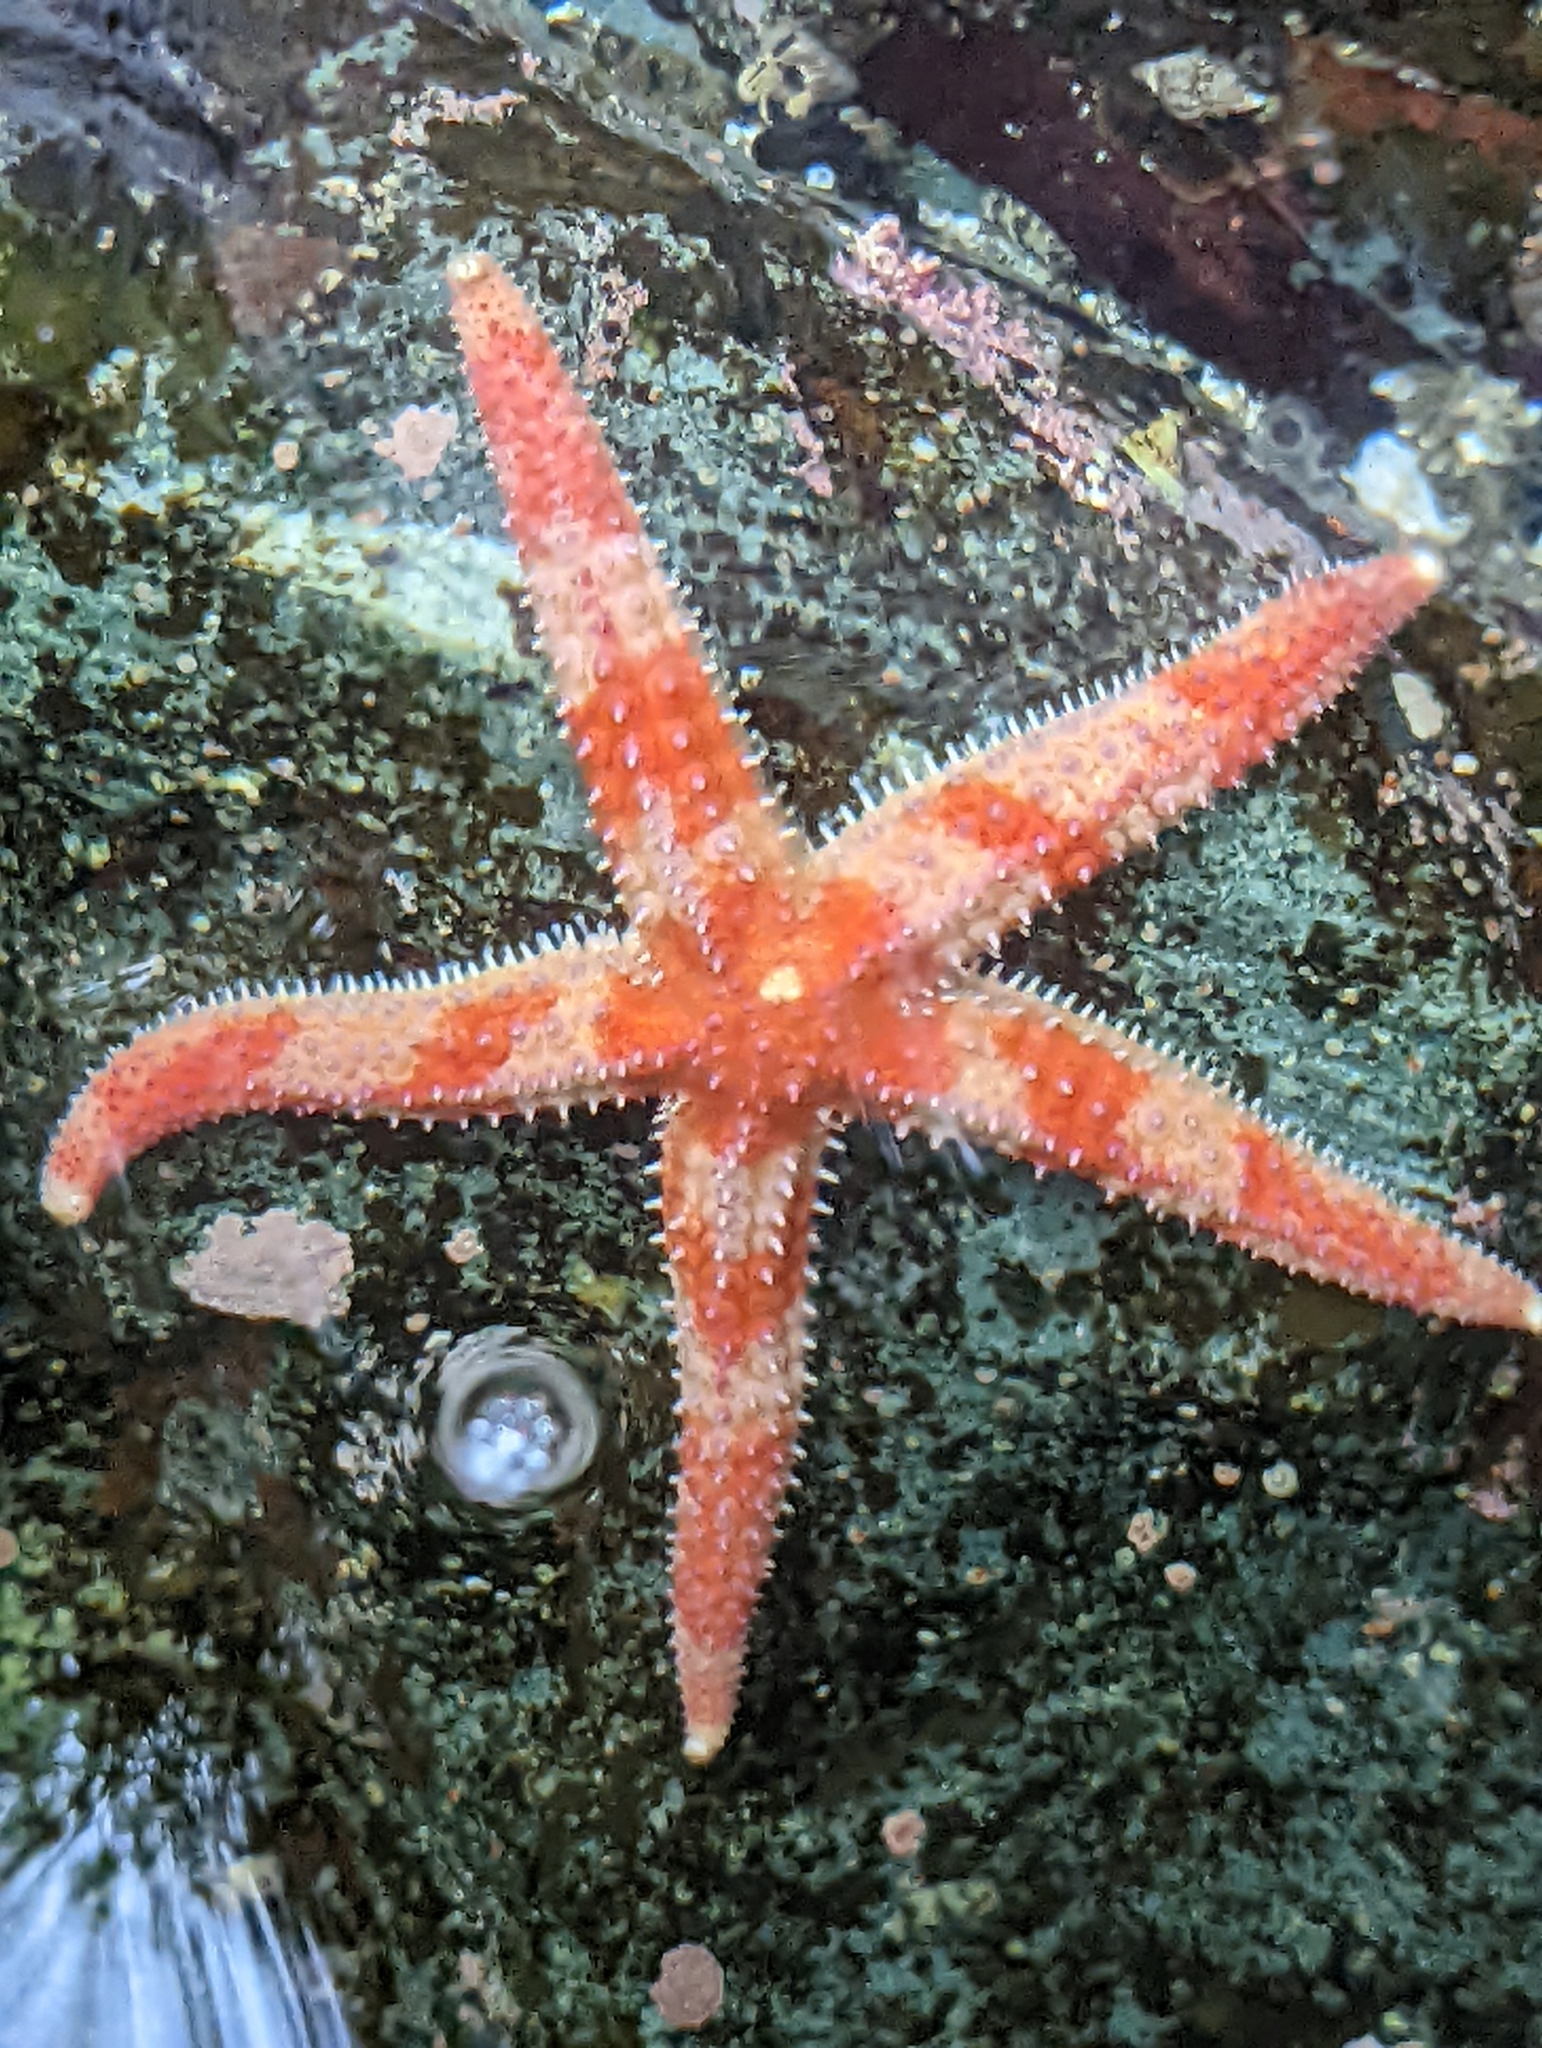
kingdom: Animalia
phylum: Echinodermata
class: Asteroidea
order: Forcipulatida
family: Asteriidae
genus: Orthasterias
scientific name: Orthasterias koehleri
